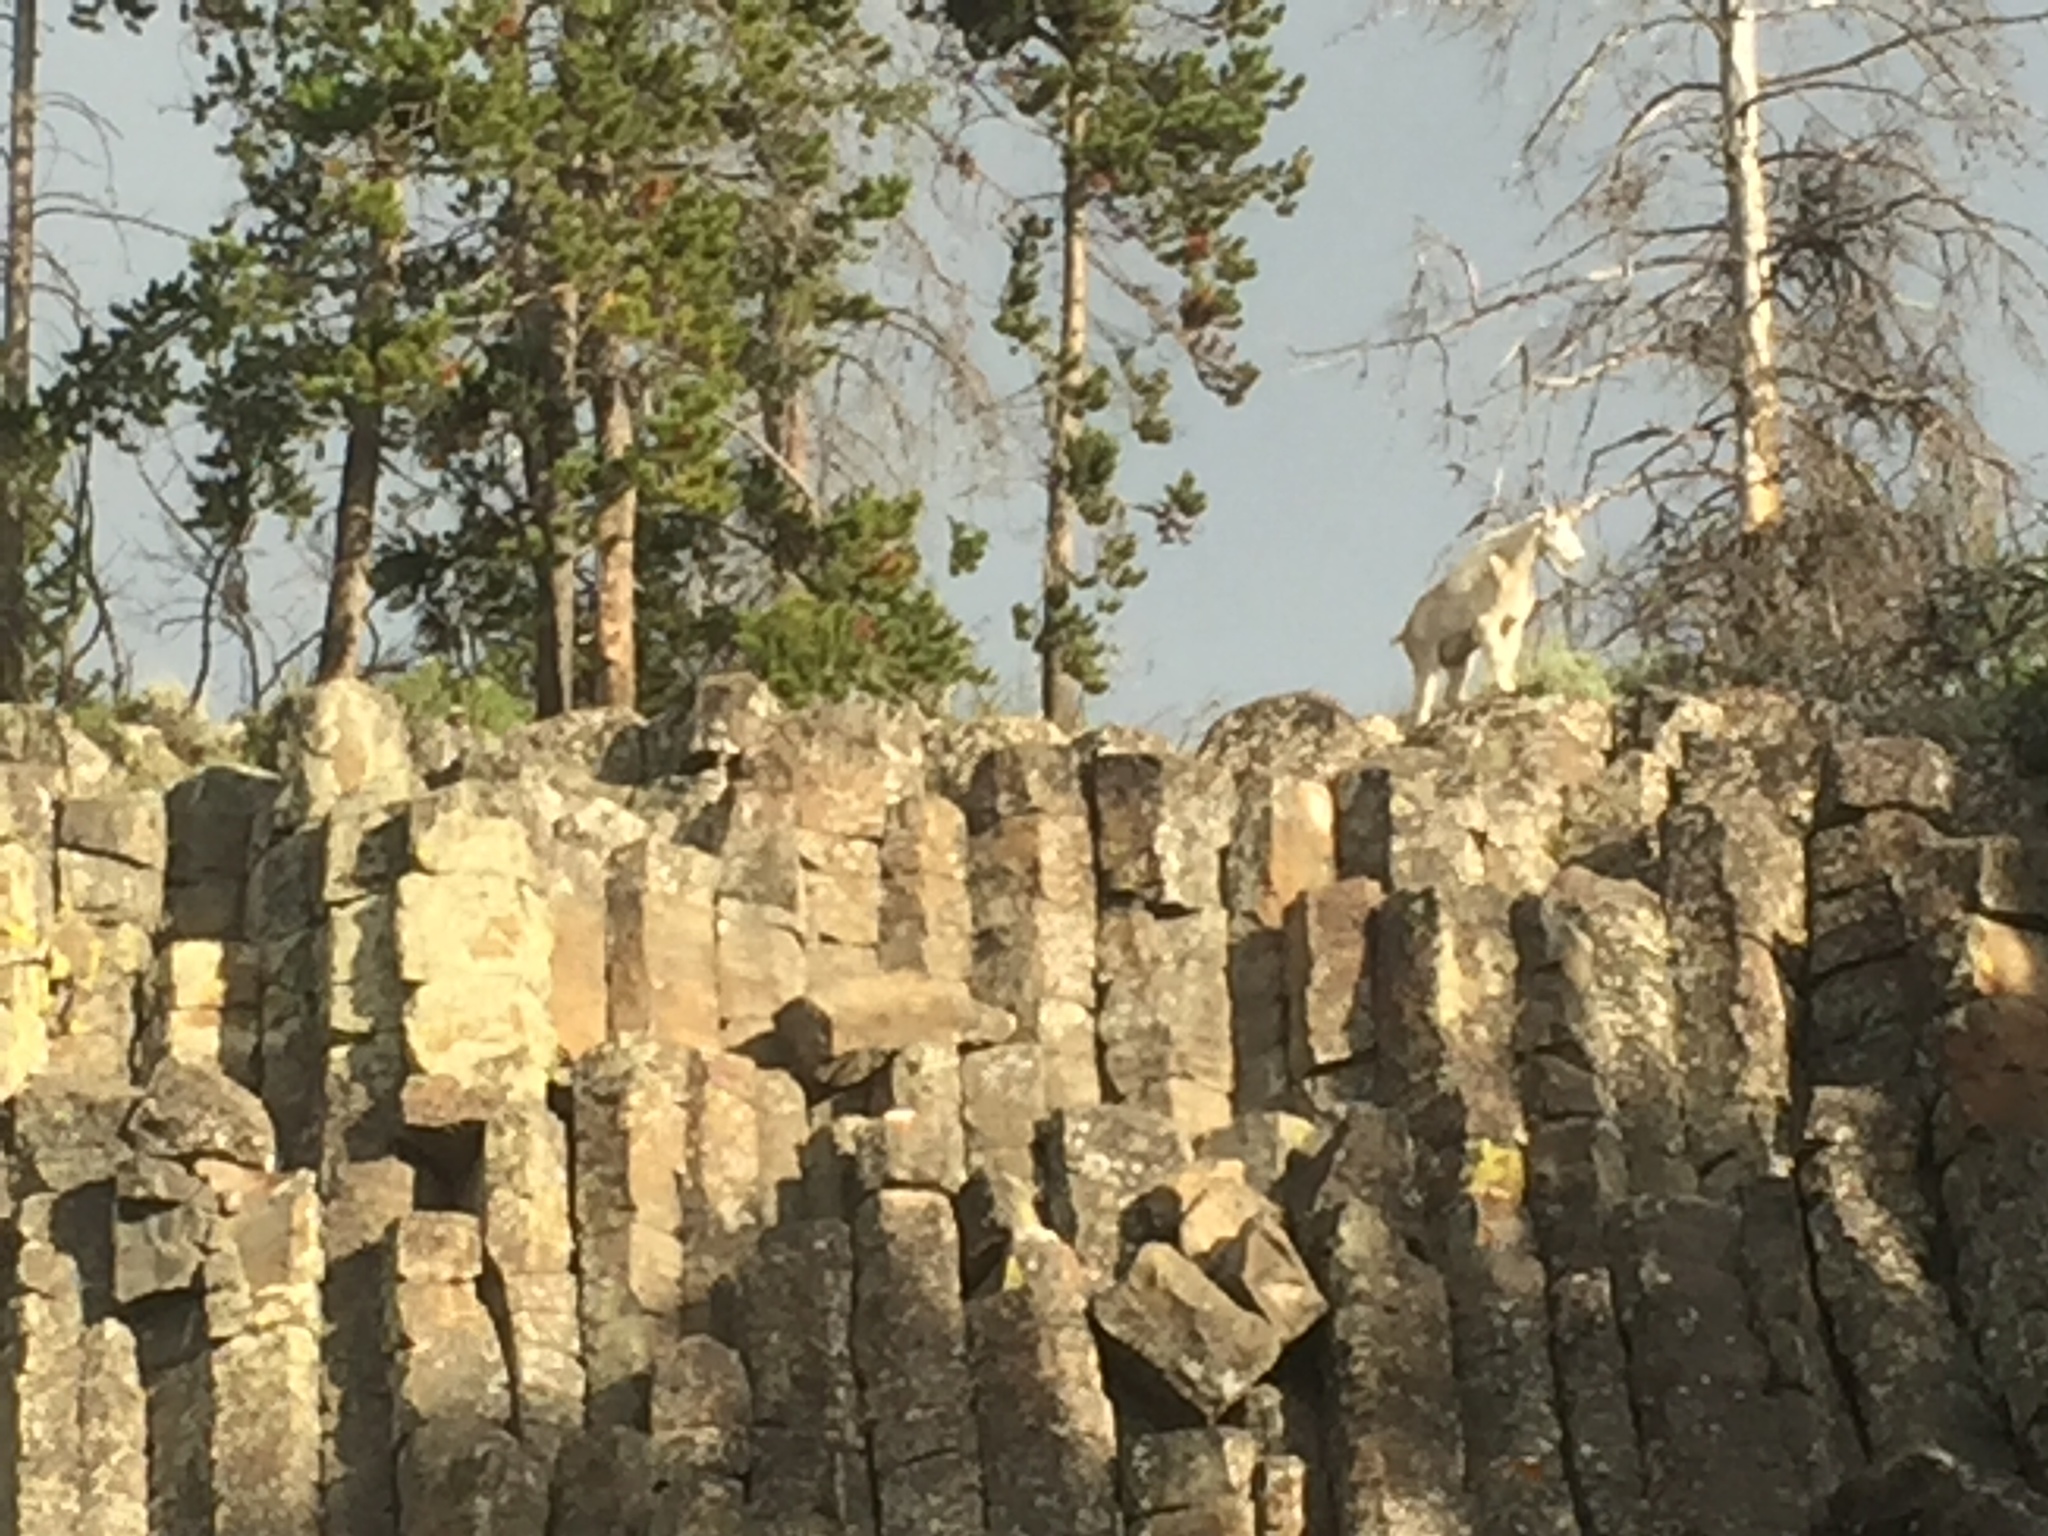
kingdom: Animalia
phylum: Chordata
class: Mammalia
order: Artiodactyla
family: Bovidae
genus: Oreamnos
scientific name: Oreamnos americanus
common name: Mountain goat
